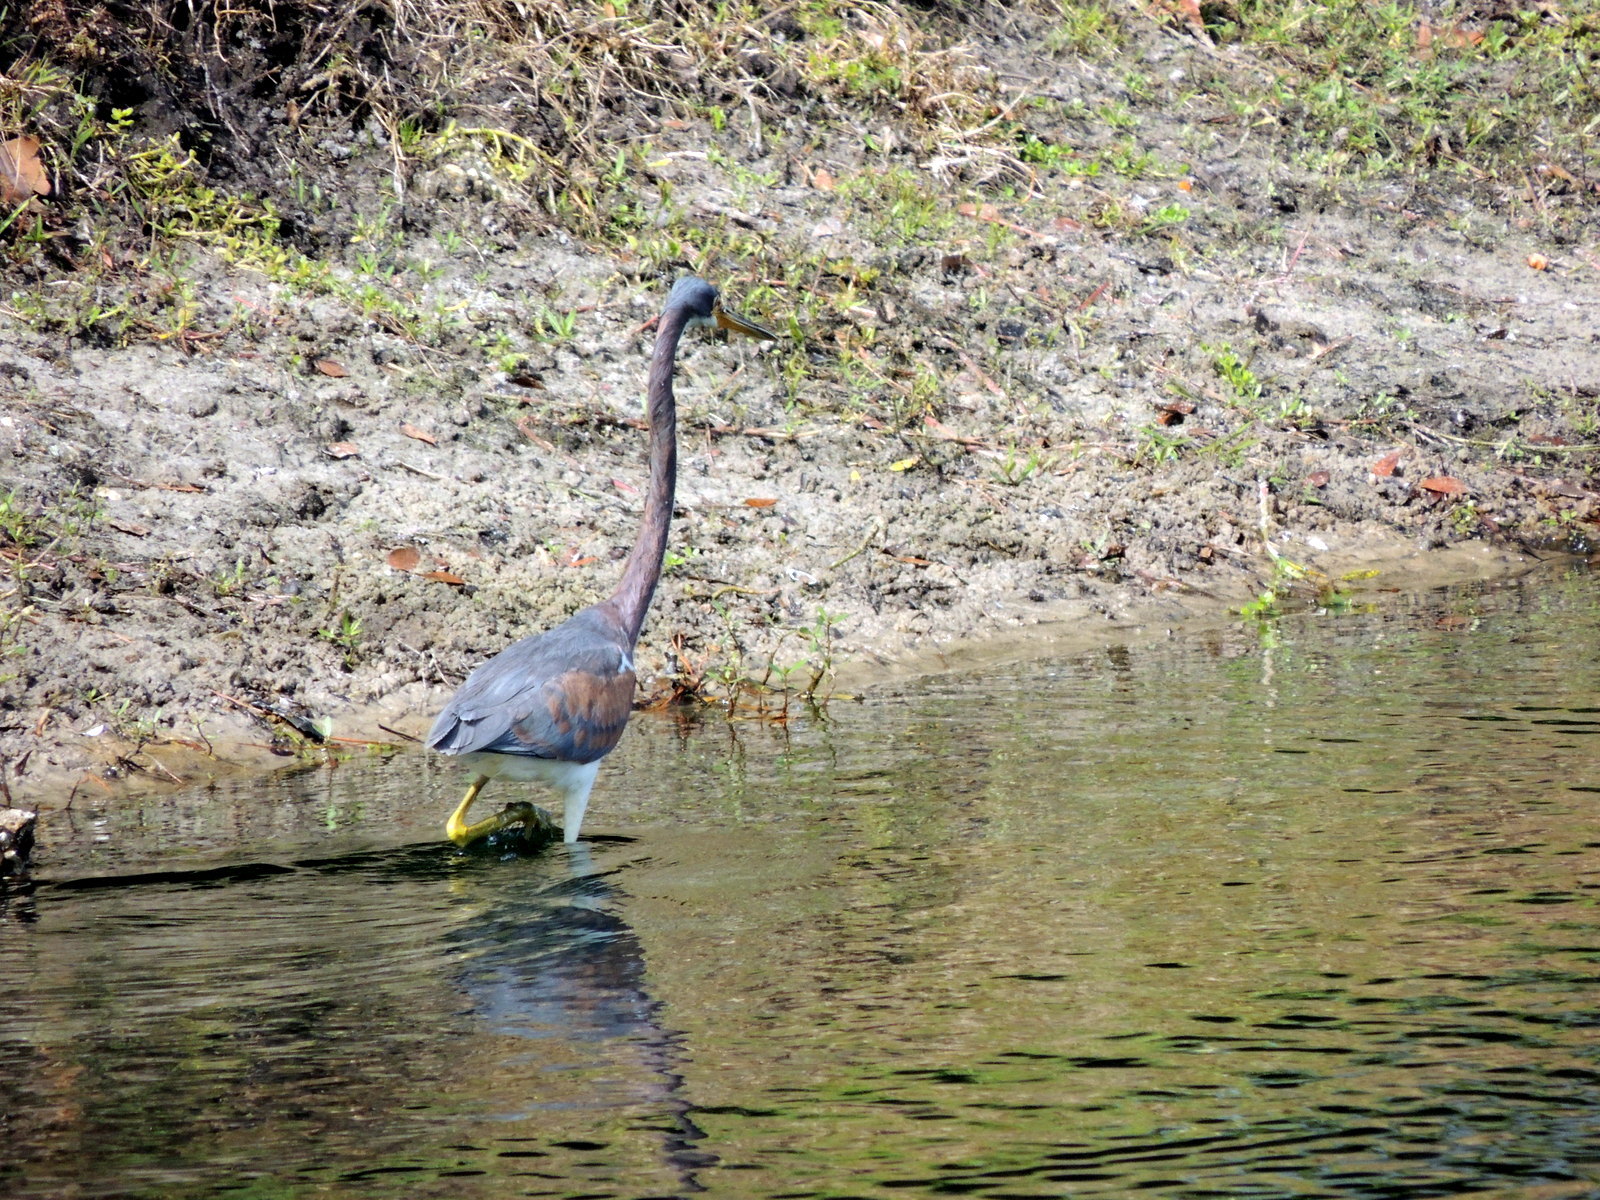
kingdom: Animalia
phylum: Chordata
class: Aves
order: Pelecaniformes
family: Ardeidae
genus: Egretta
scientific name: Egretta tricolor
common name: Tricolored heron
